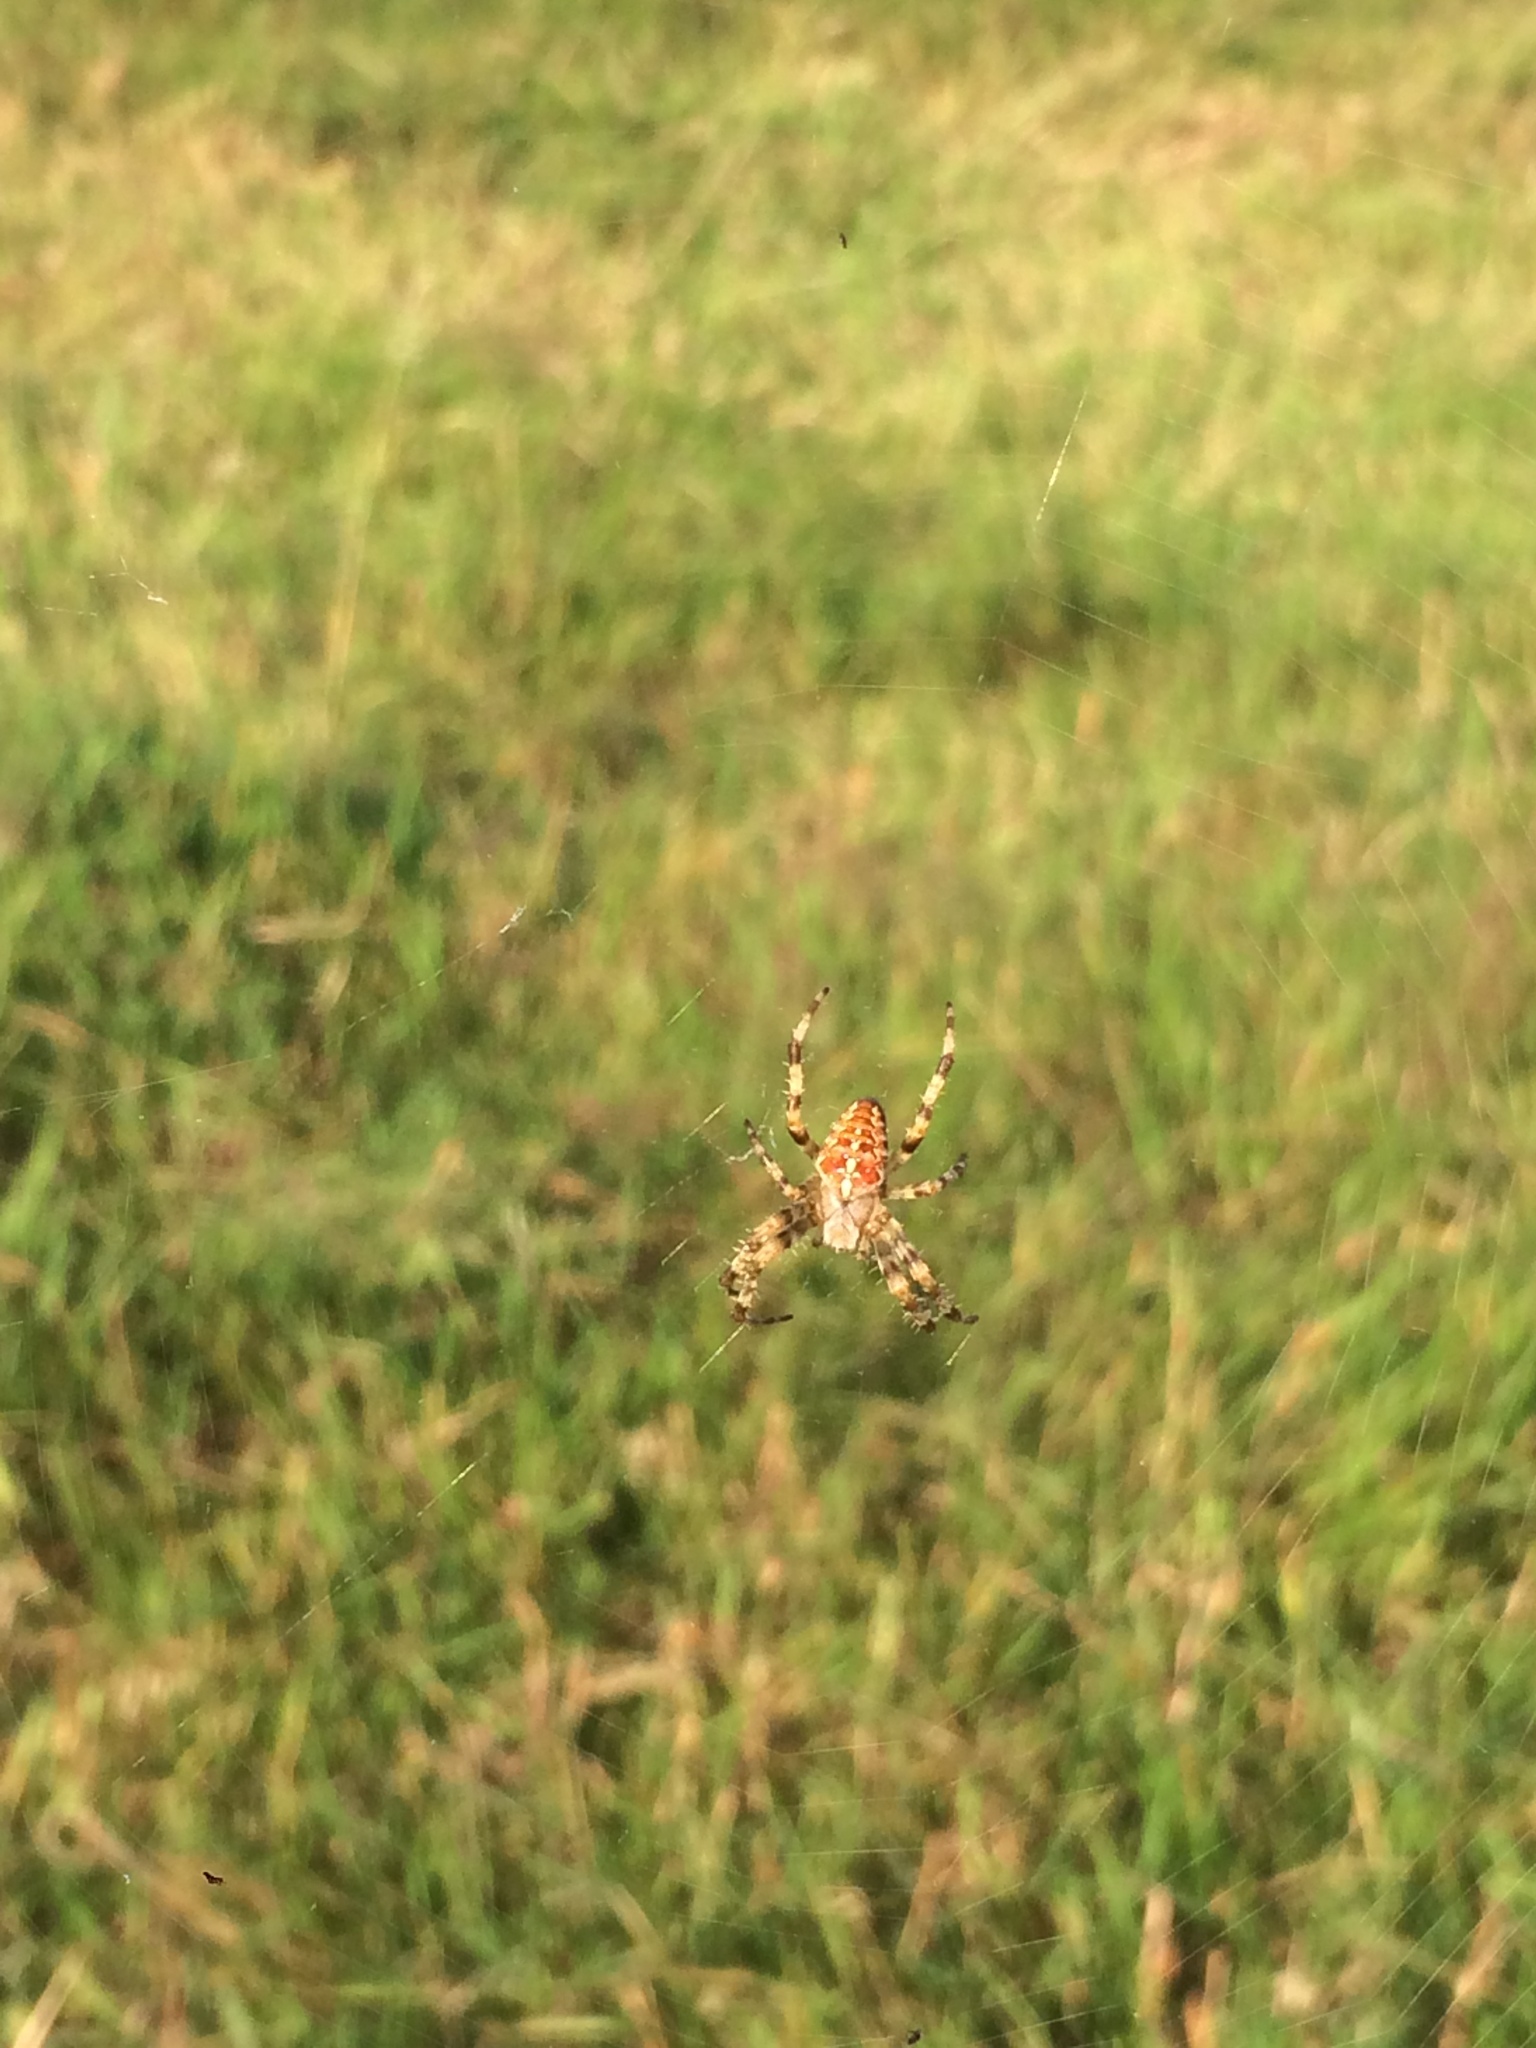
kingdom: Animalia
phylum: Arthropoda
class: Arachnida
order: Araneae
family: Araneidae
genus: Araneus
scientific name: Araneus diadematus
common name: Cross orbweaver
